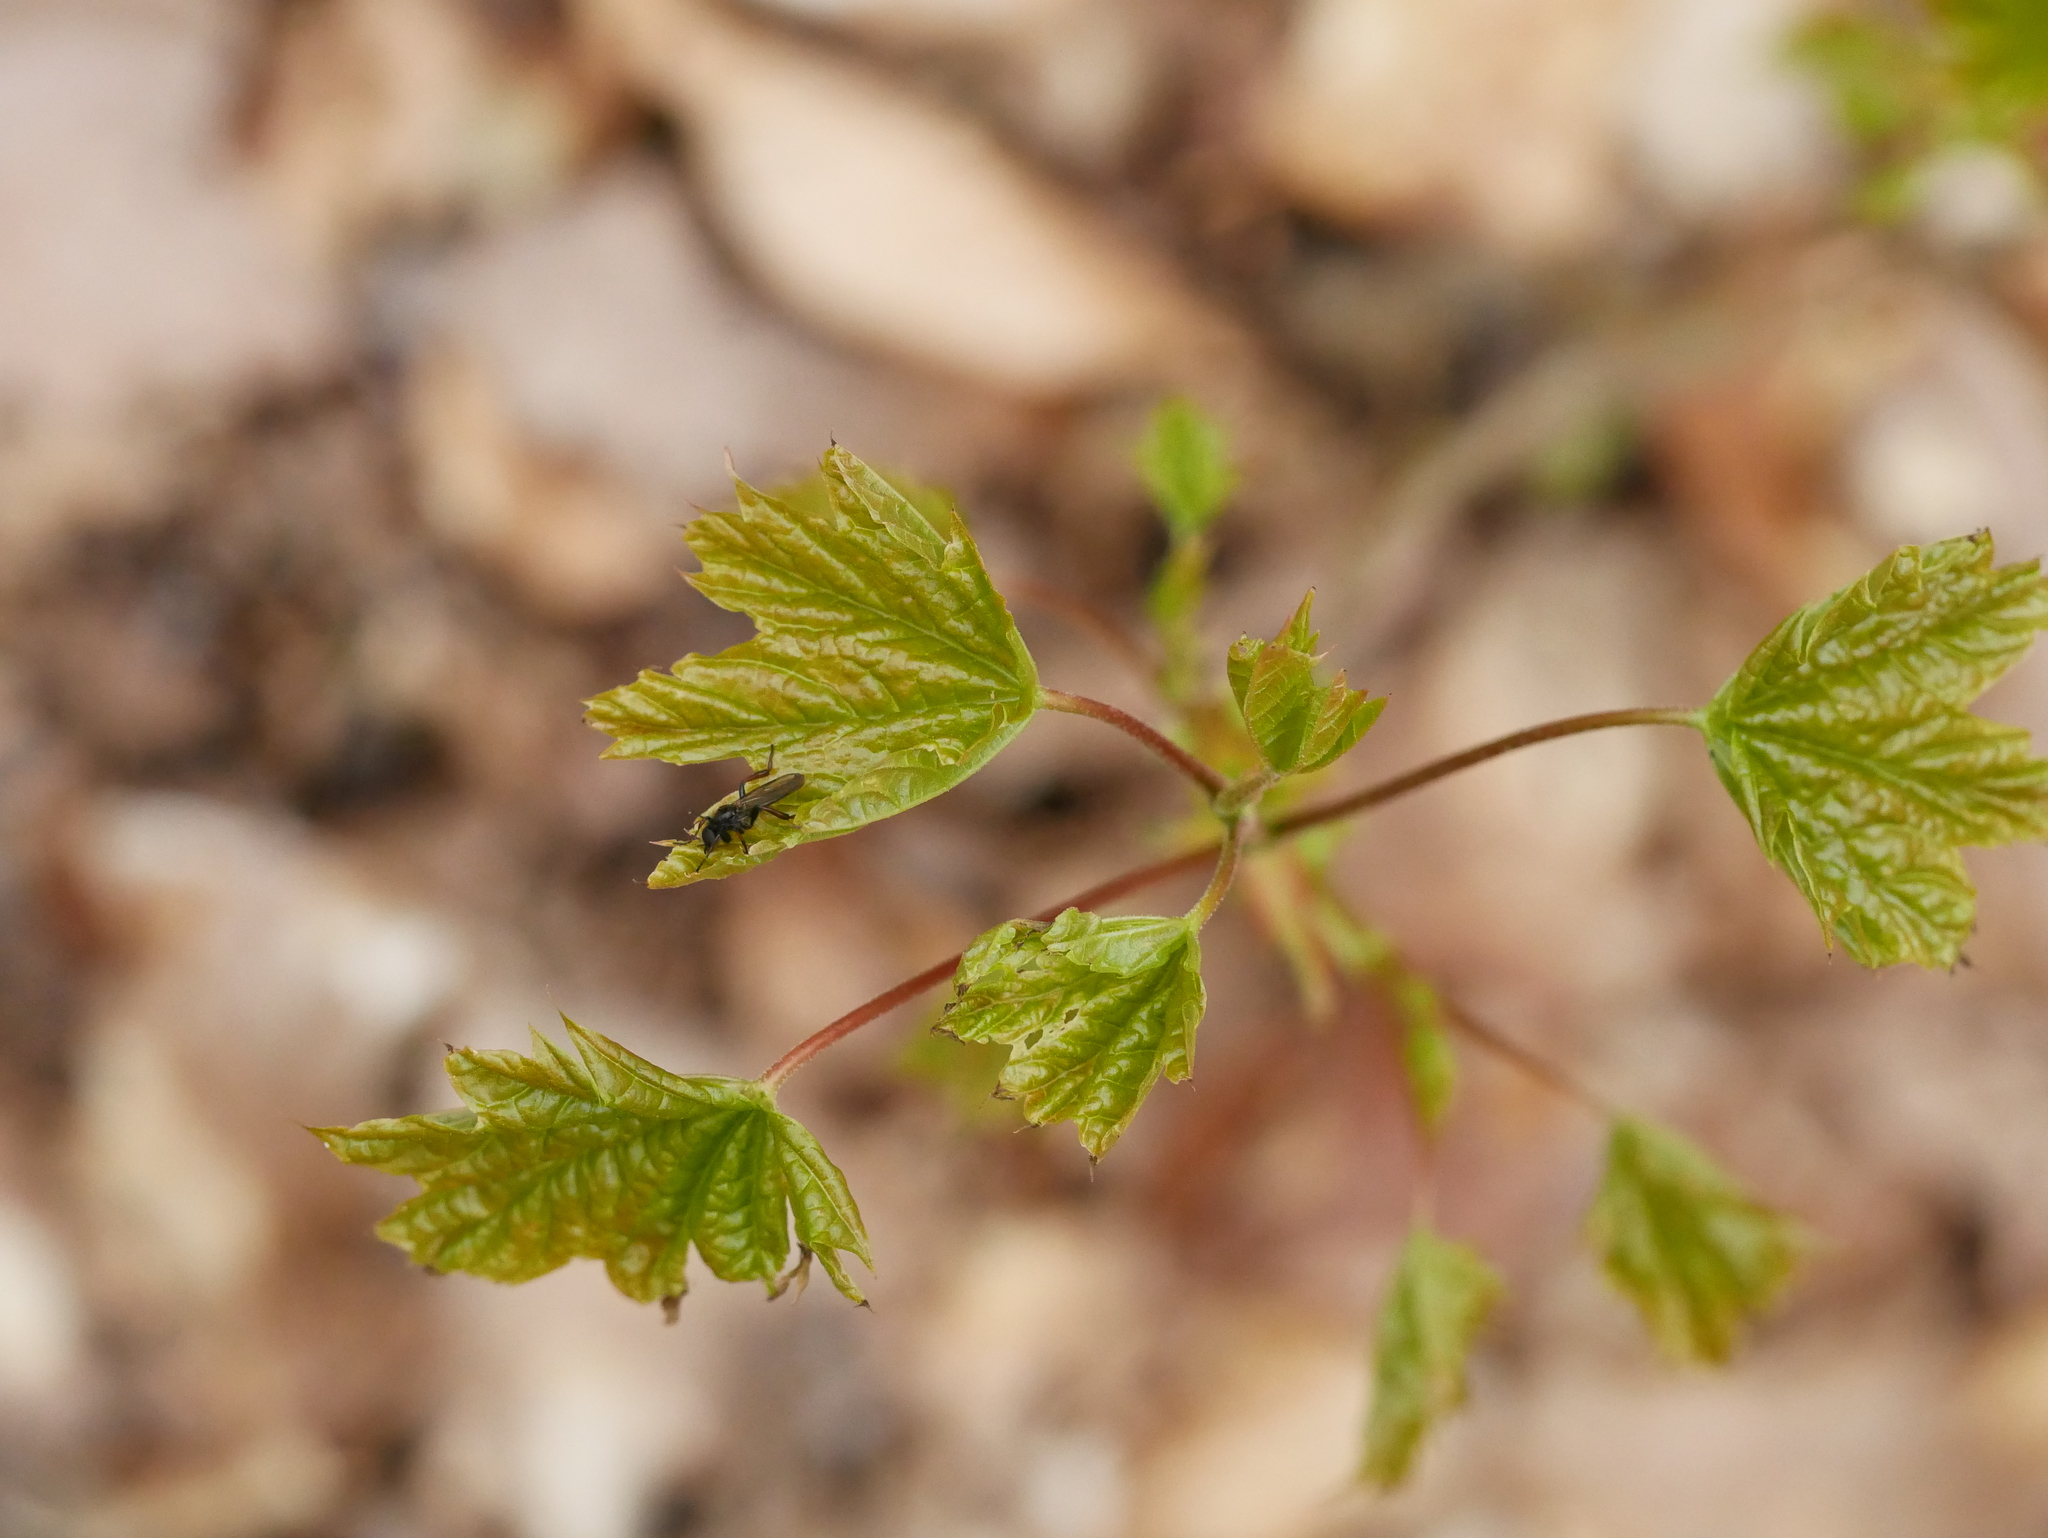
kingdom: Plantae
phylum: Tracheophyta
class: Magnoliopsida
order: Sapindales
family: Sapindaceae
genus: Acer
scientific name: Acer platanoides
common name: Norway maple
